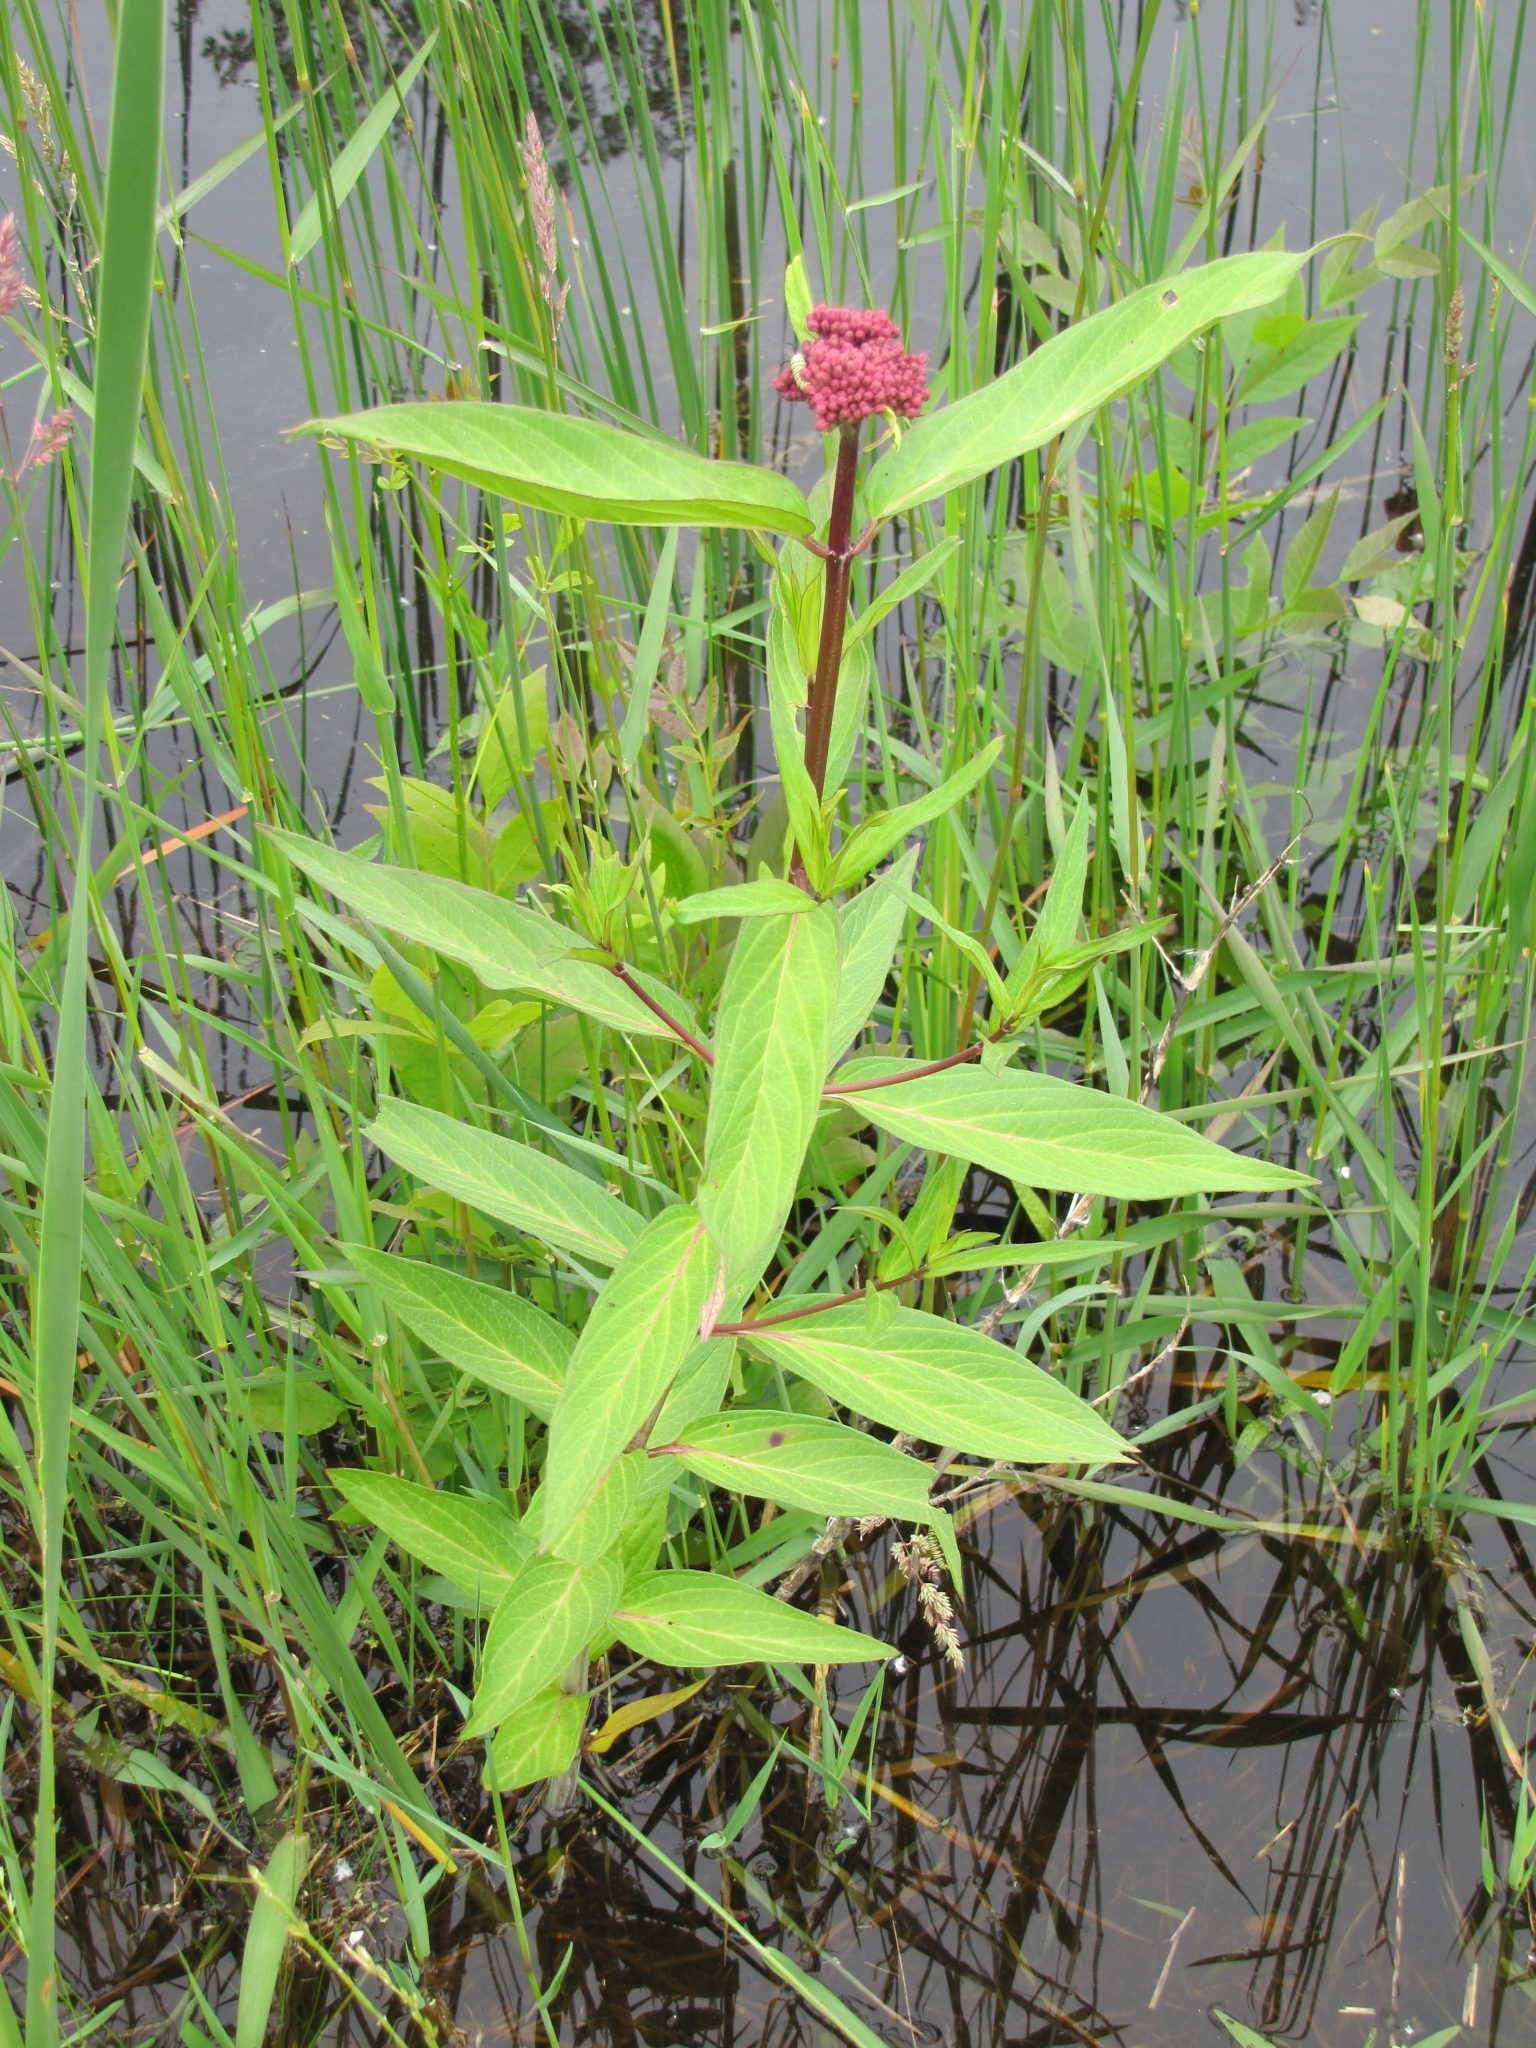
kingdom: Plantae
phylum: Tracheophyta
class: Magnoliopsida
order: Gentianales
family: Apocynaceae
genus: Asclepias
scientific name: Asclepias incarnata
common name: Swamp milkweed
